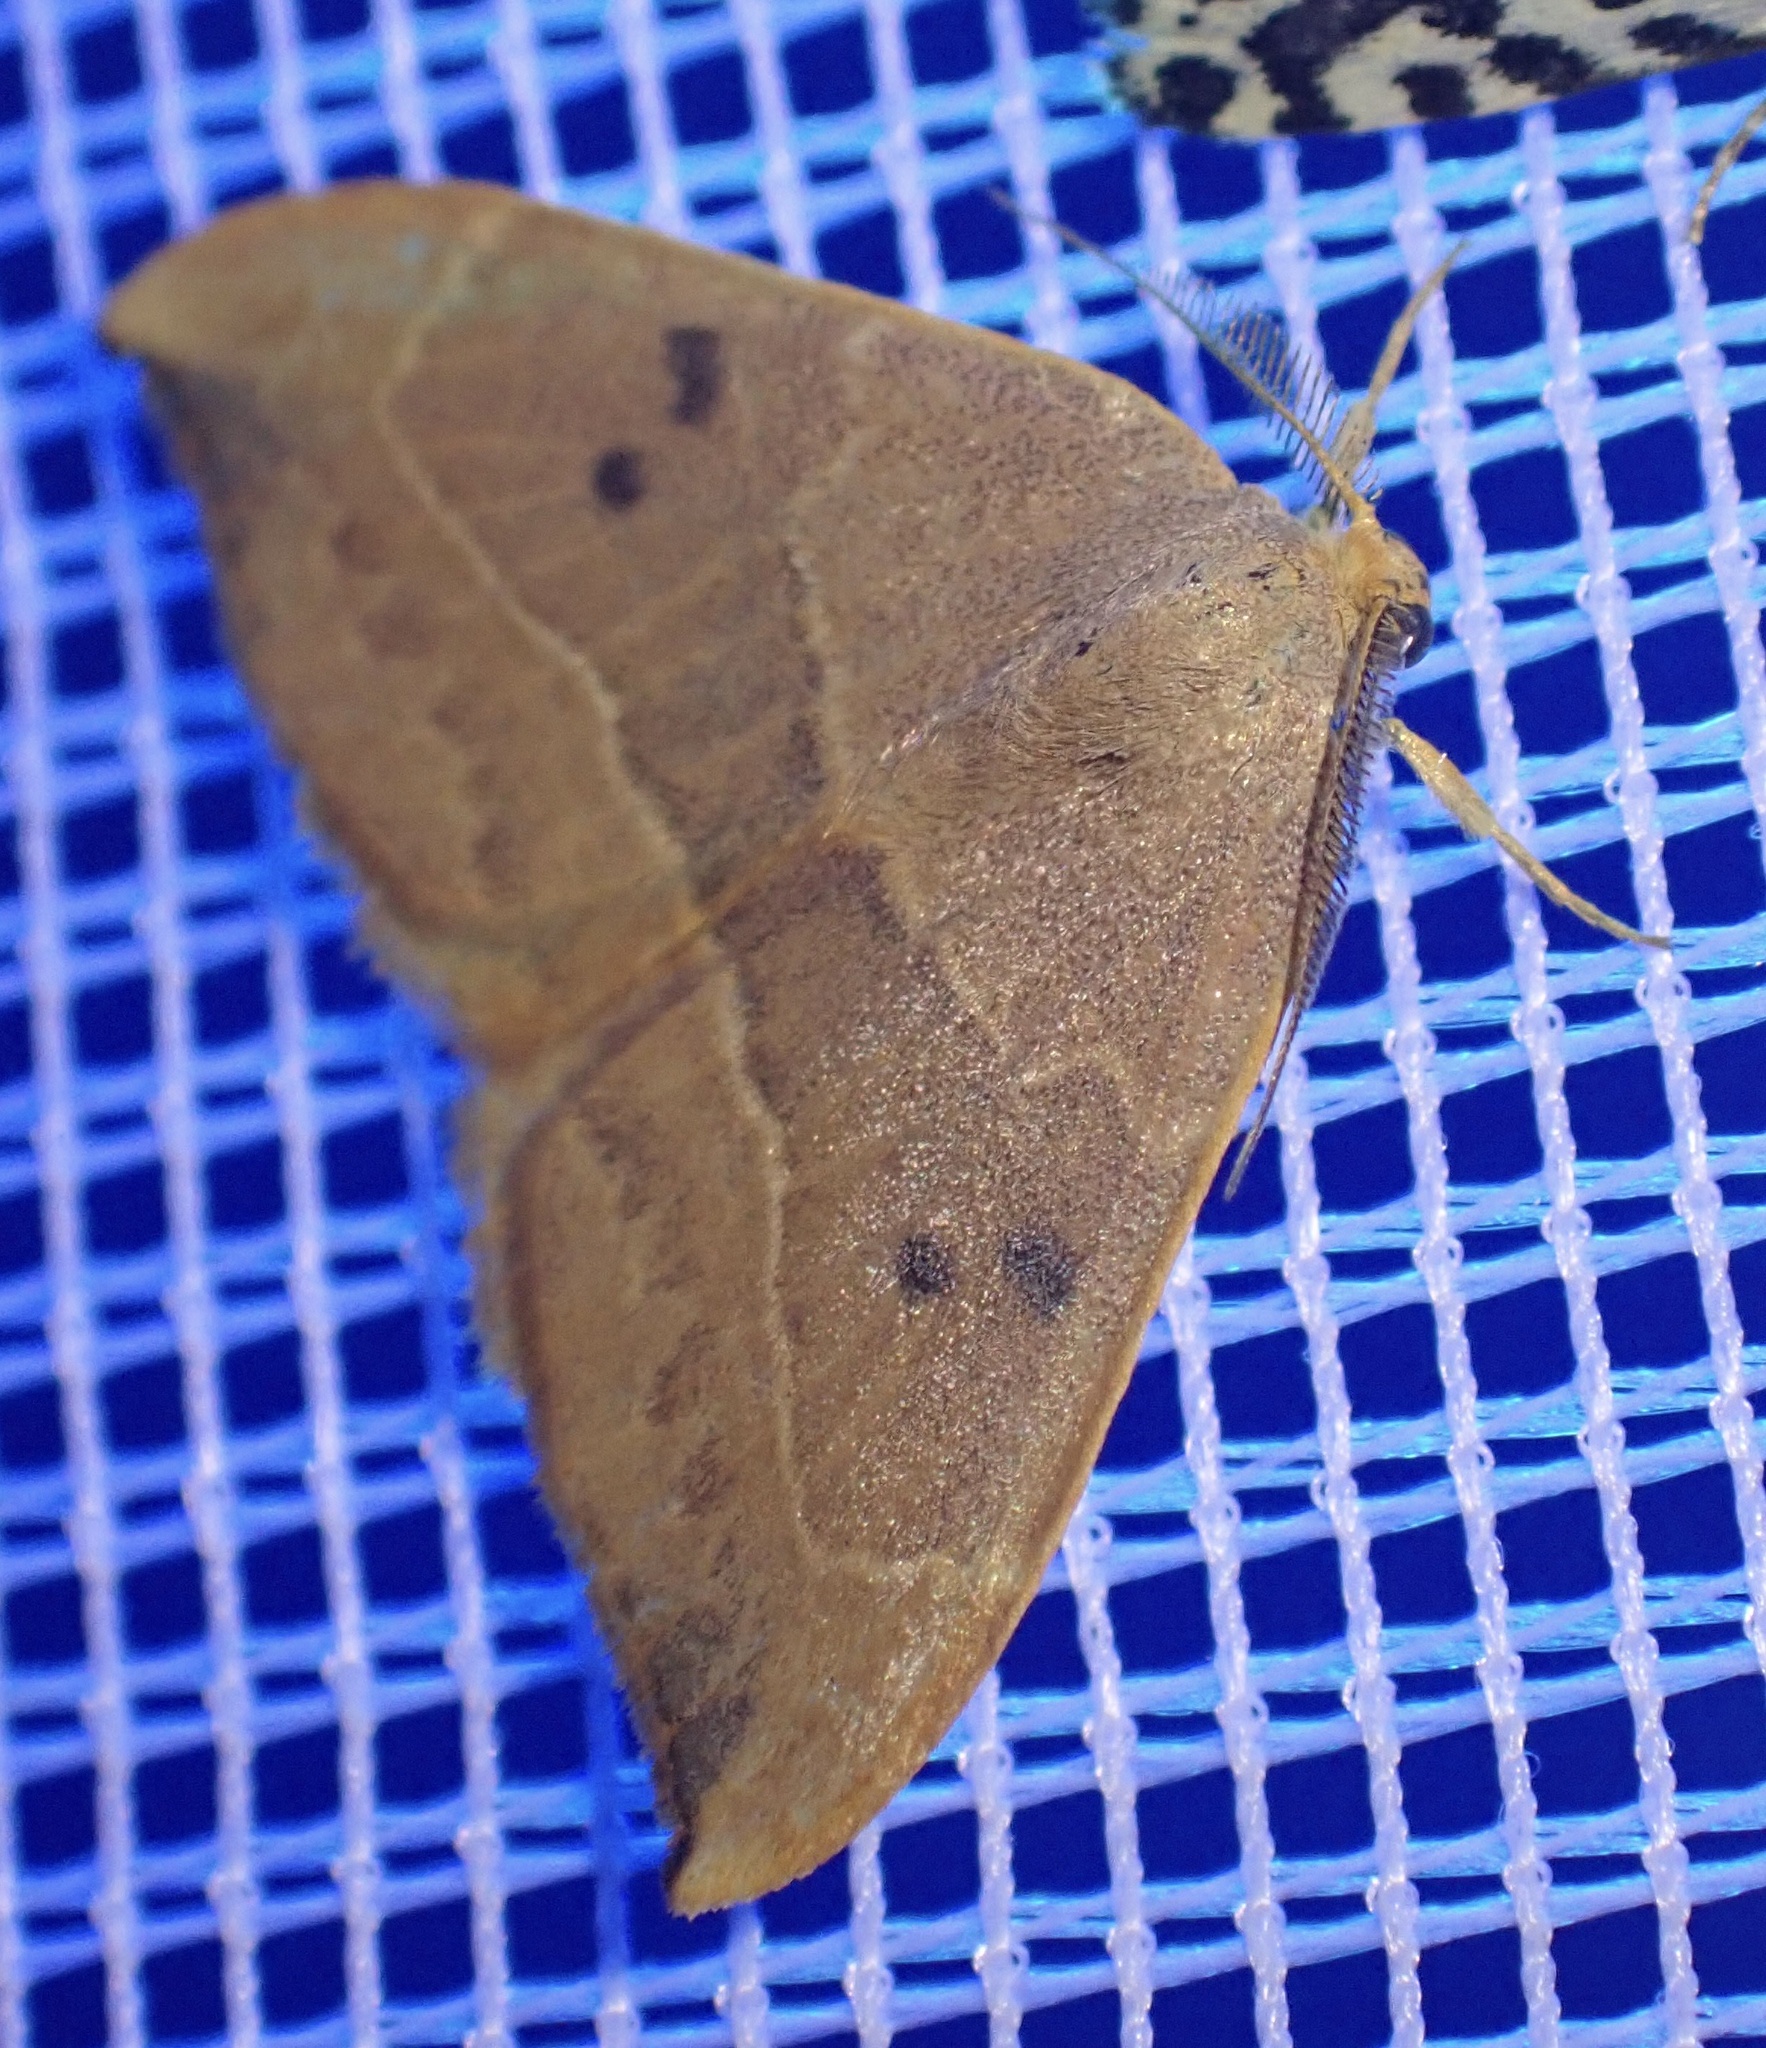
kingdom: Animalia
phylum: Arthropoda
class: Insecta
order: Lepidoptera
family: Drepanidae
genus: Watsonalla
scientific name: Watsonalla binaria
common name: Oak hook-tip
